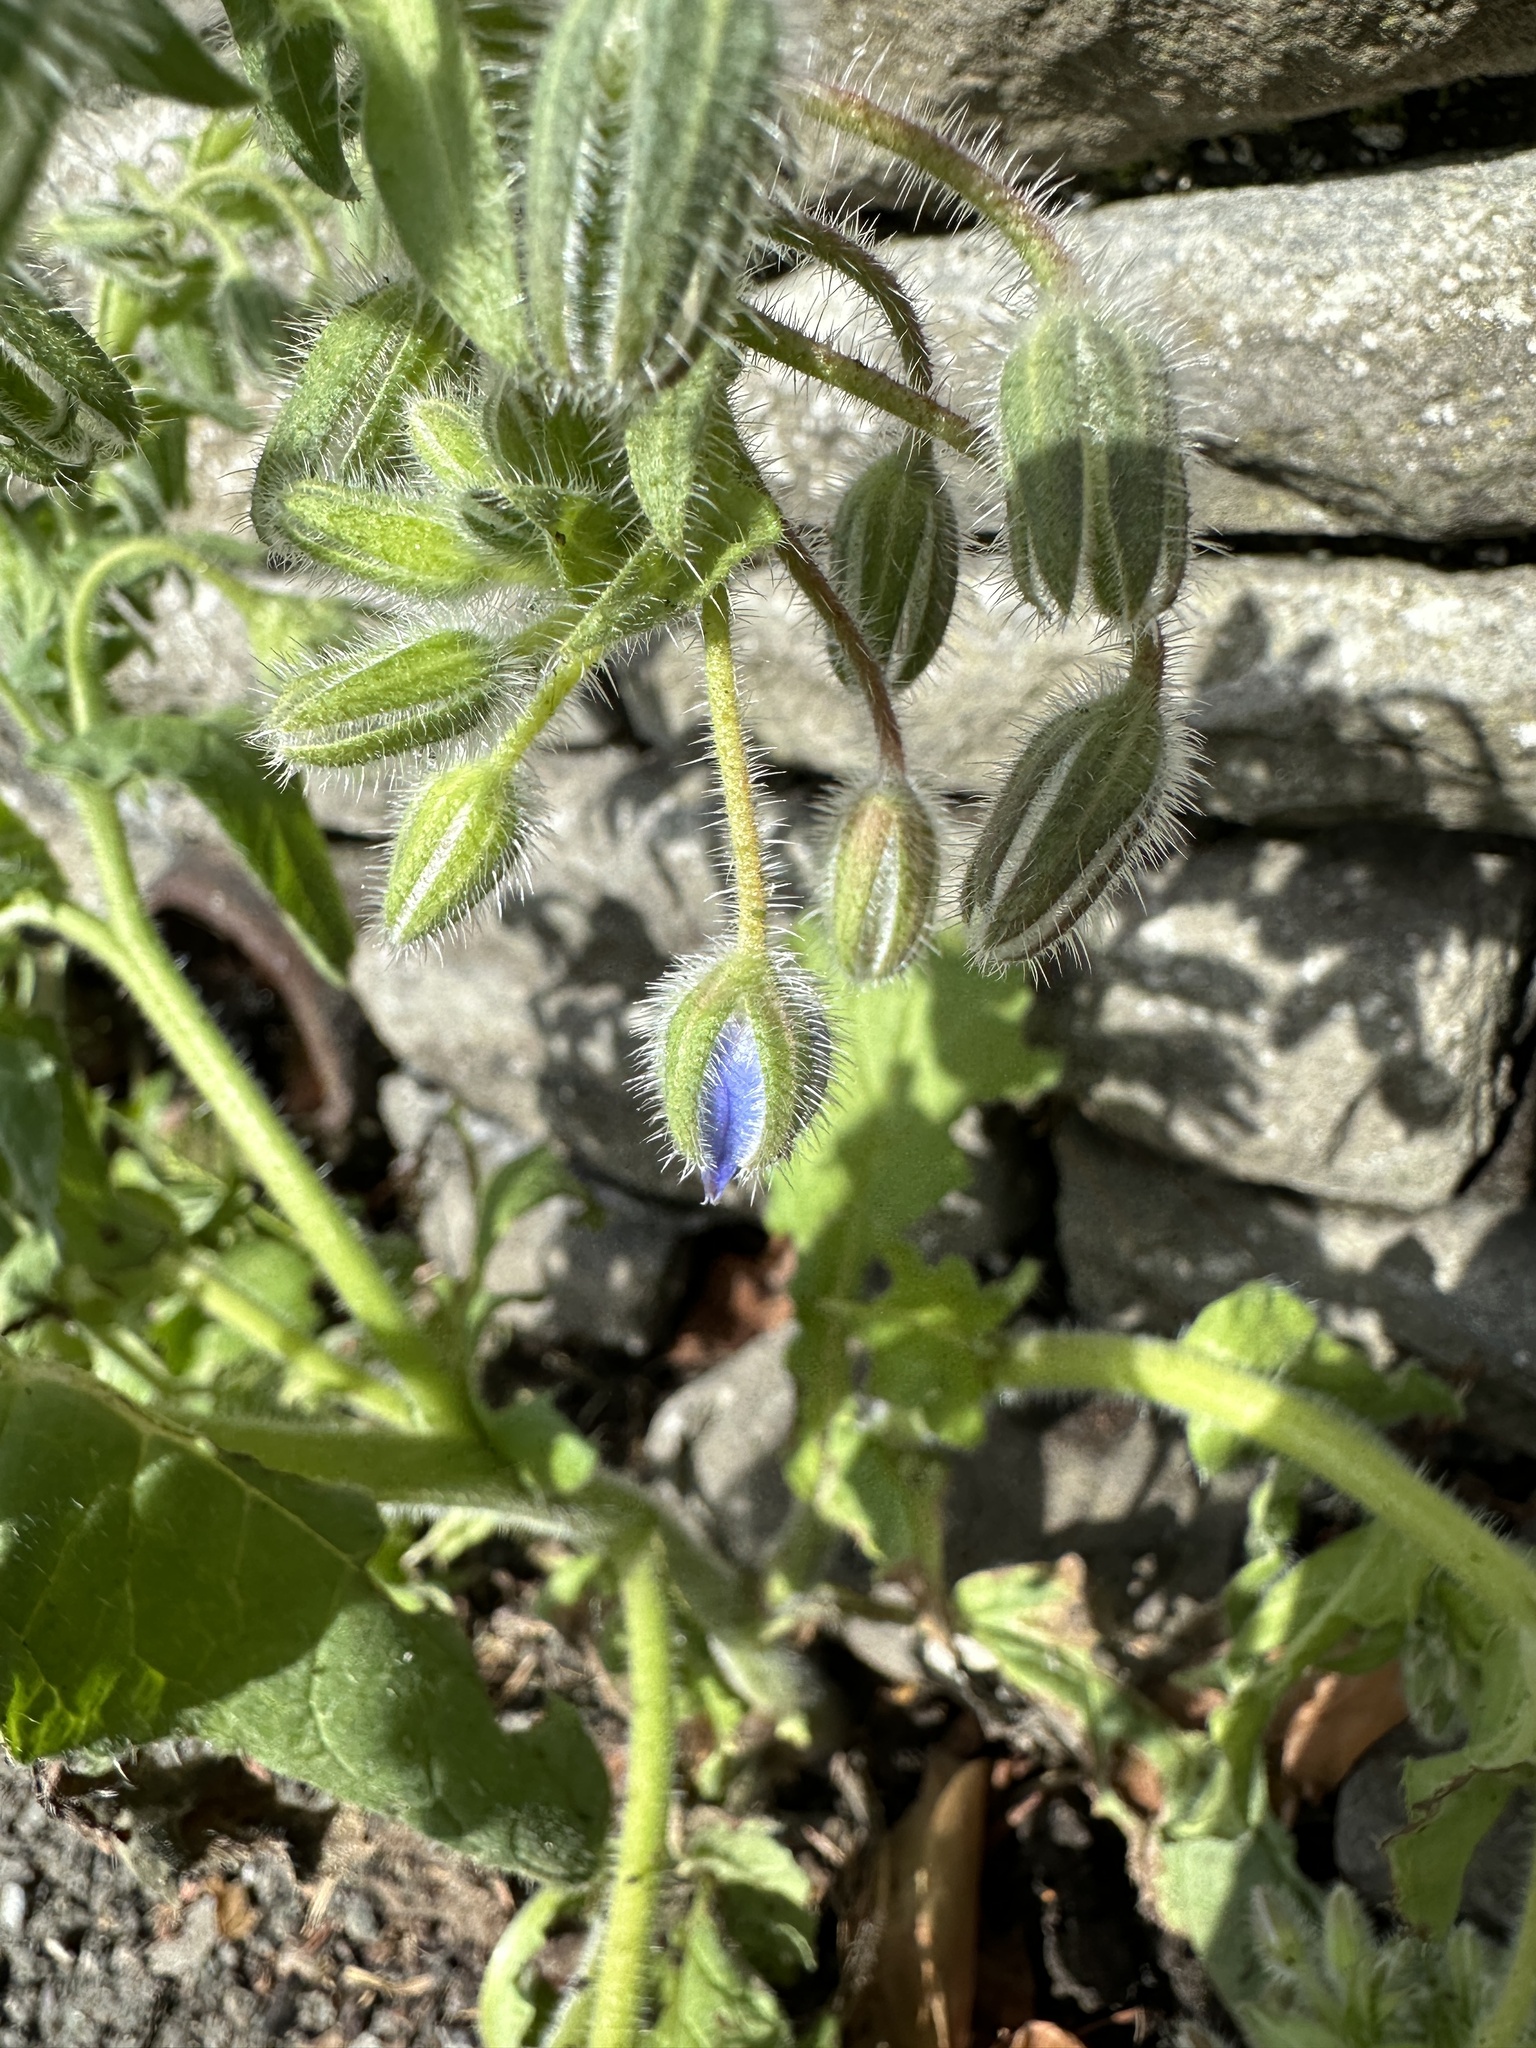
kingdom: Plantae
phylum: Tracheophyta
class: Magnoliopsida
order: Boraginales
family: Boraginaceae
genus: Borago
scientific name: Borago officinalis
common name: Borage
